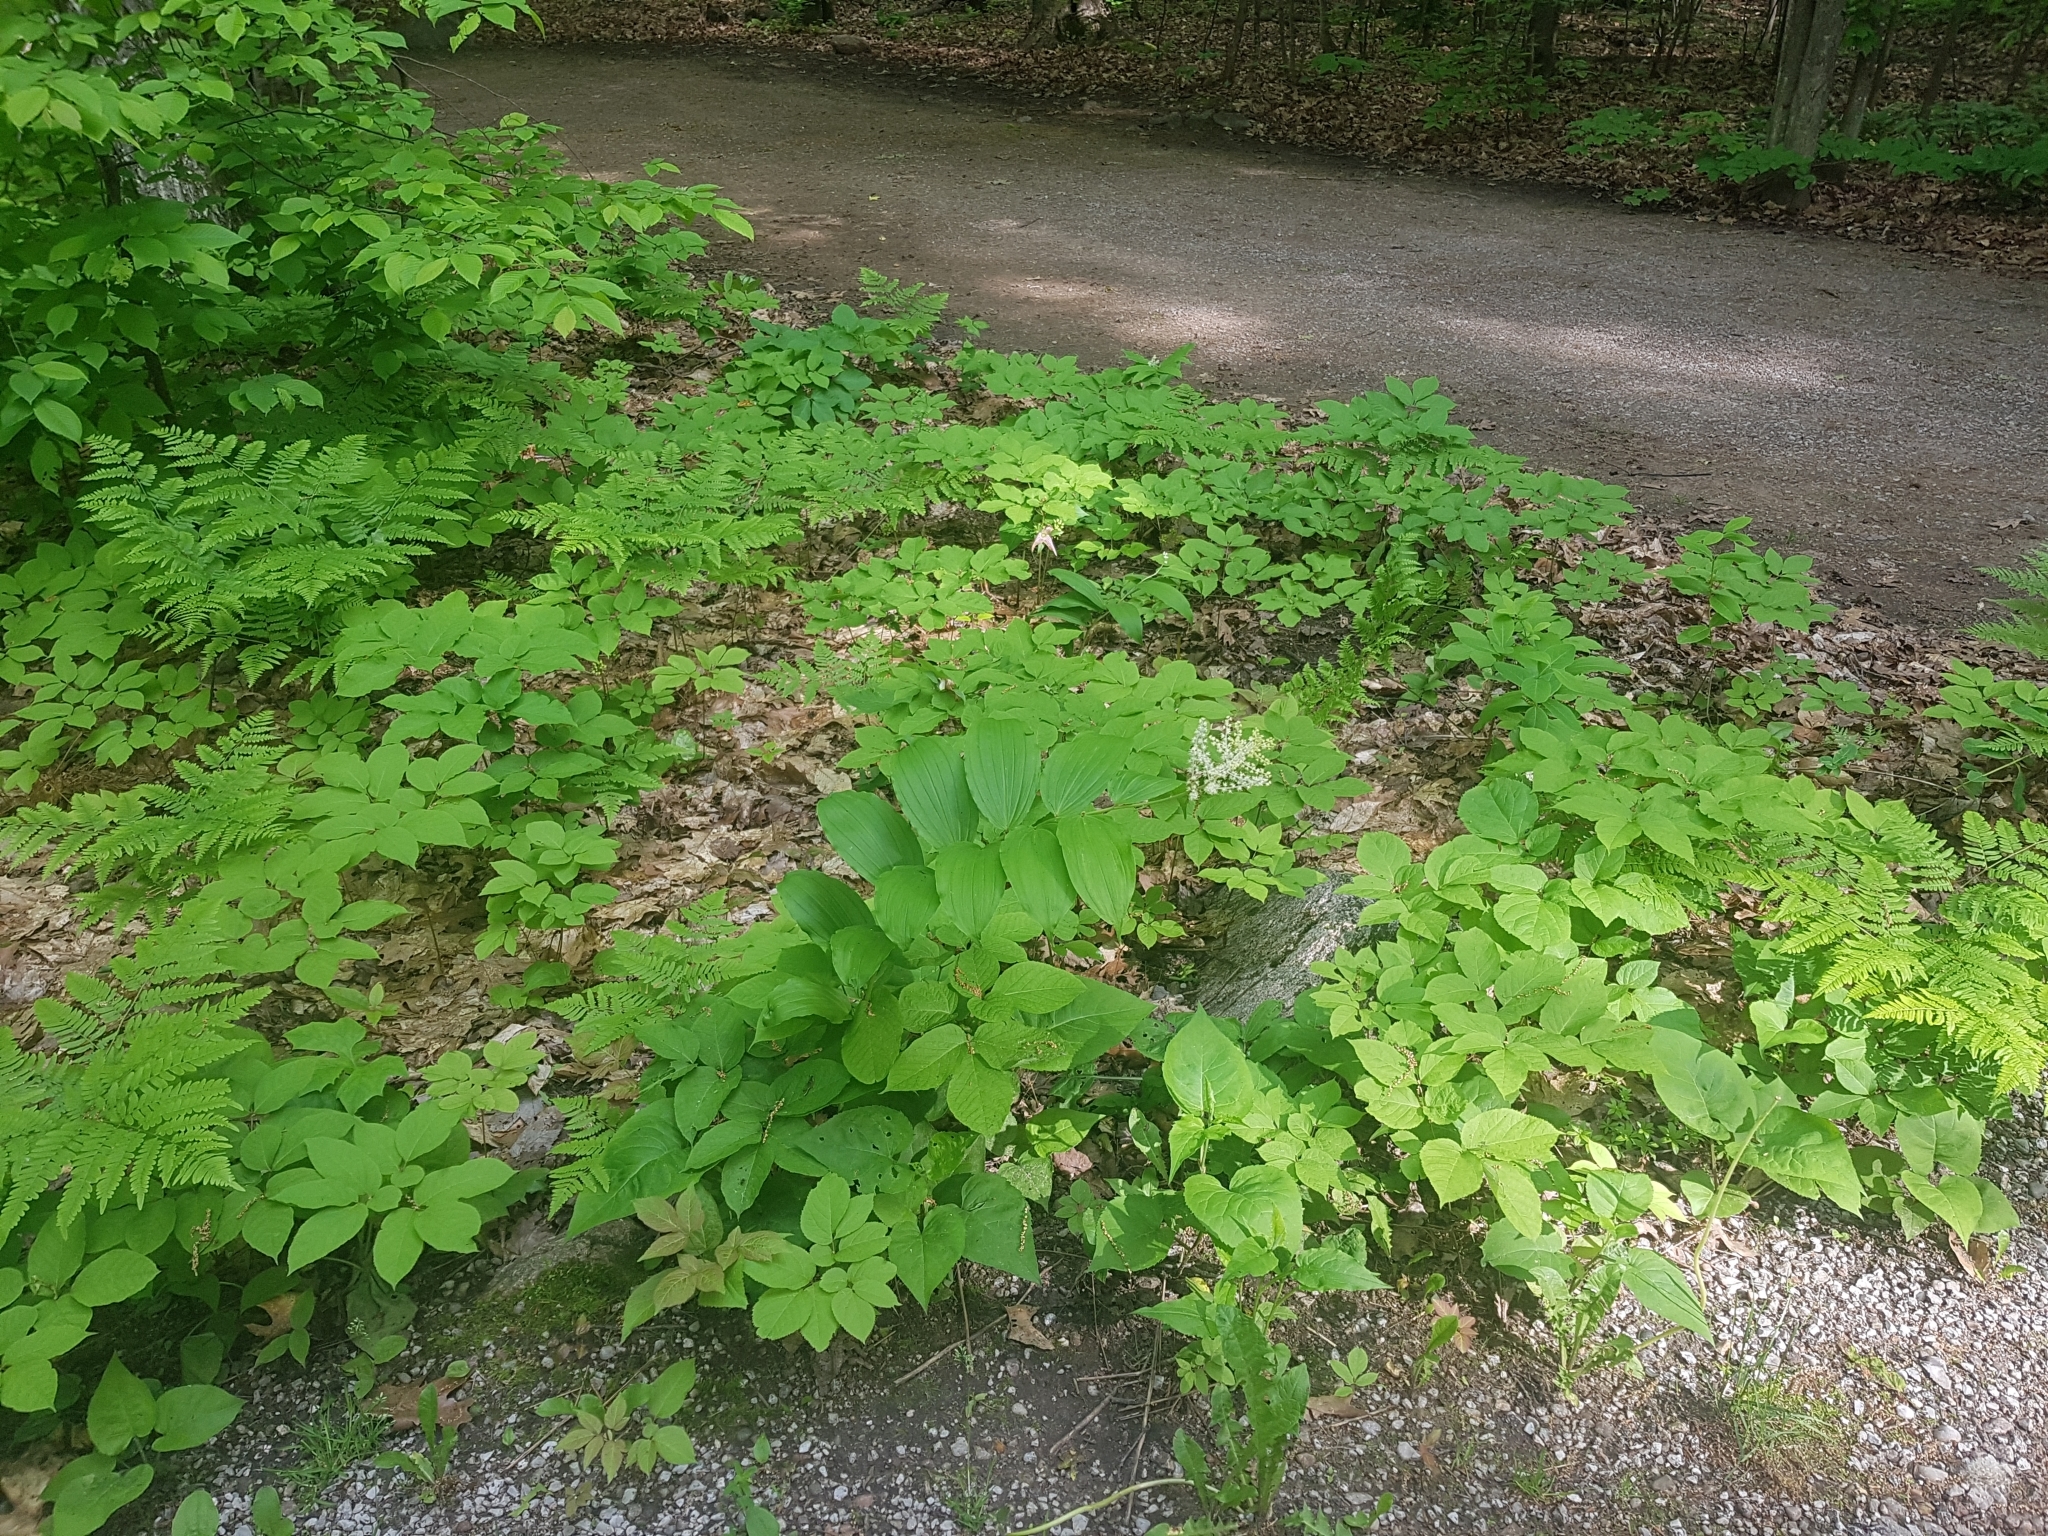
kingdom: Plantae
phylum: Tracheophyta
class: Liliopsida
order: Asparagales
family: Asparagaceae
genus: Maianthemum
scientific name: Maianthemum racemosum
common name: False spikenard
